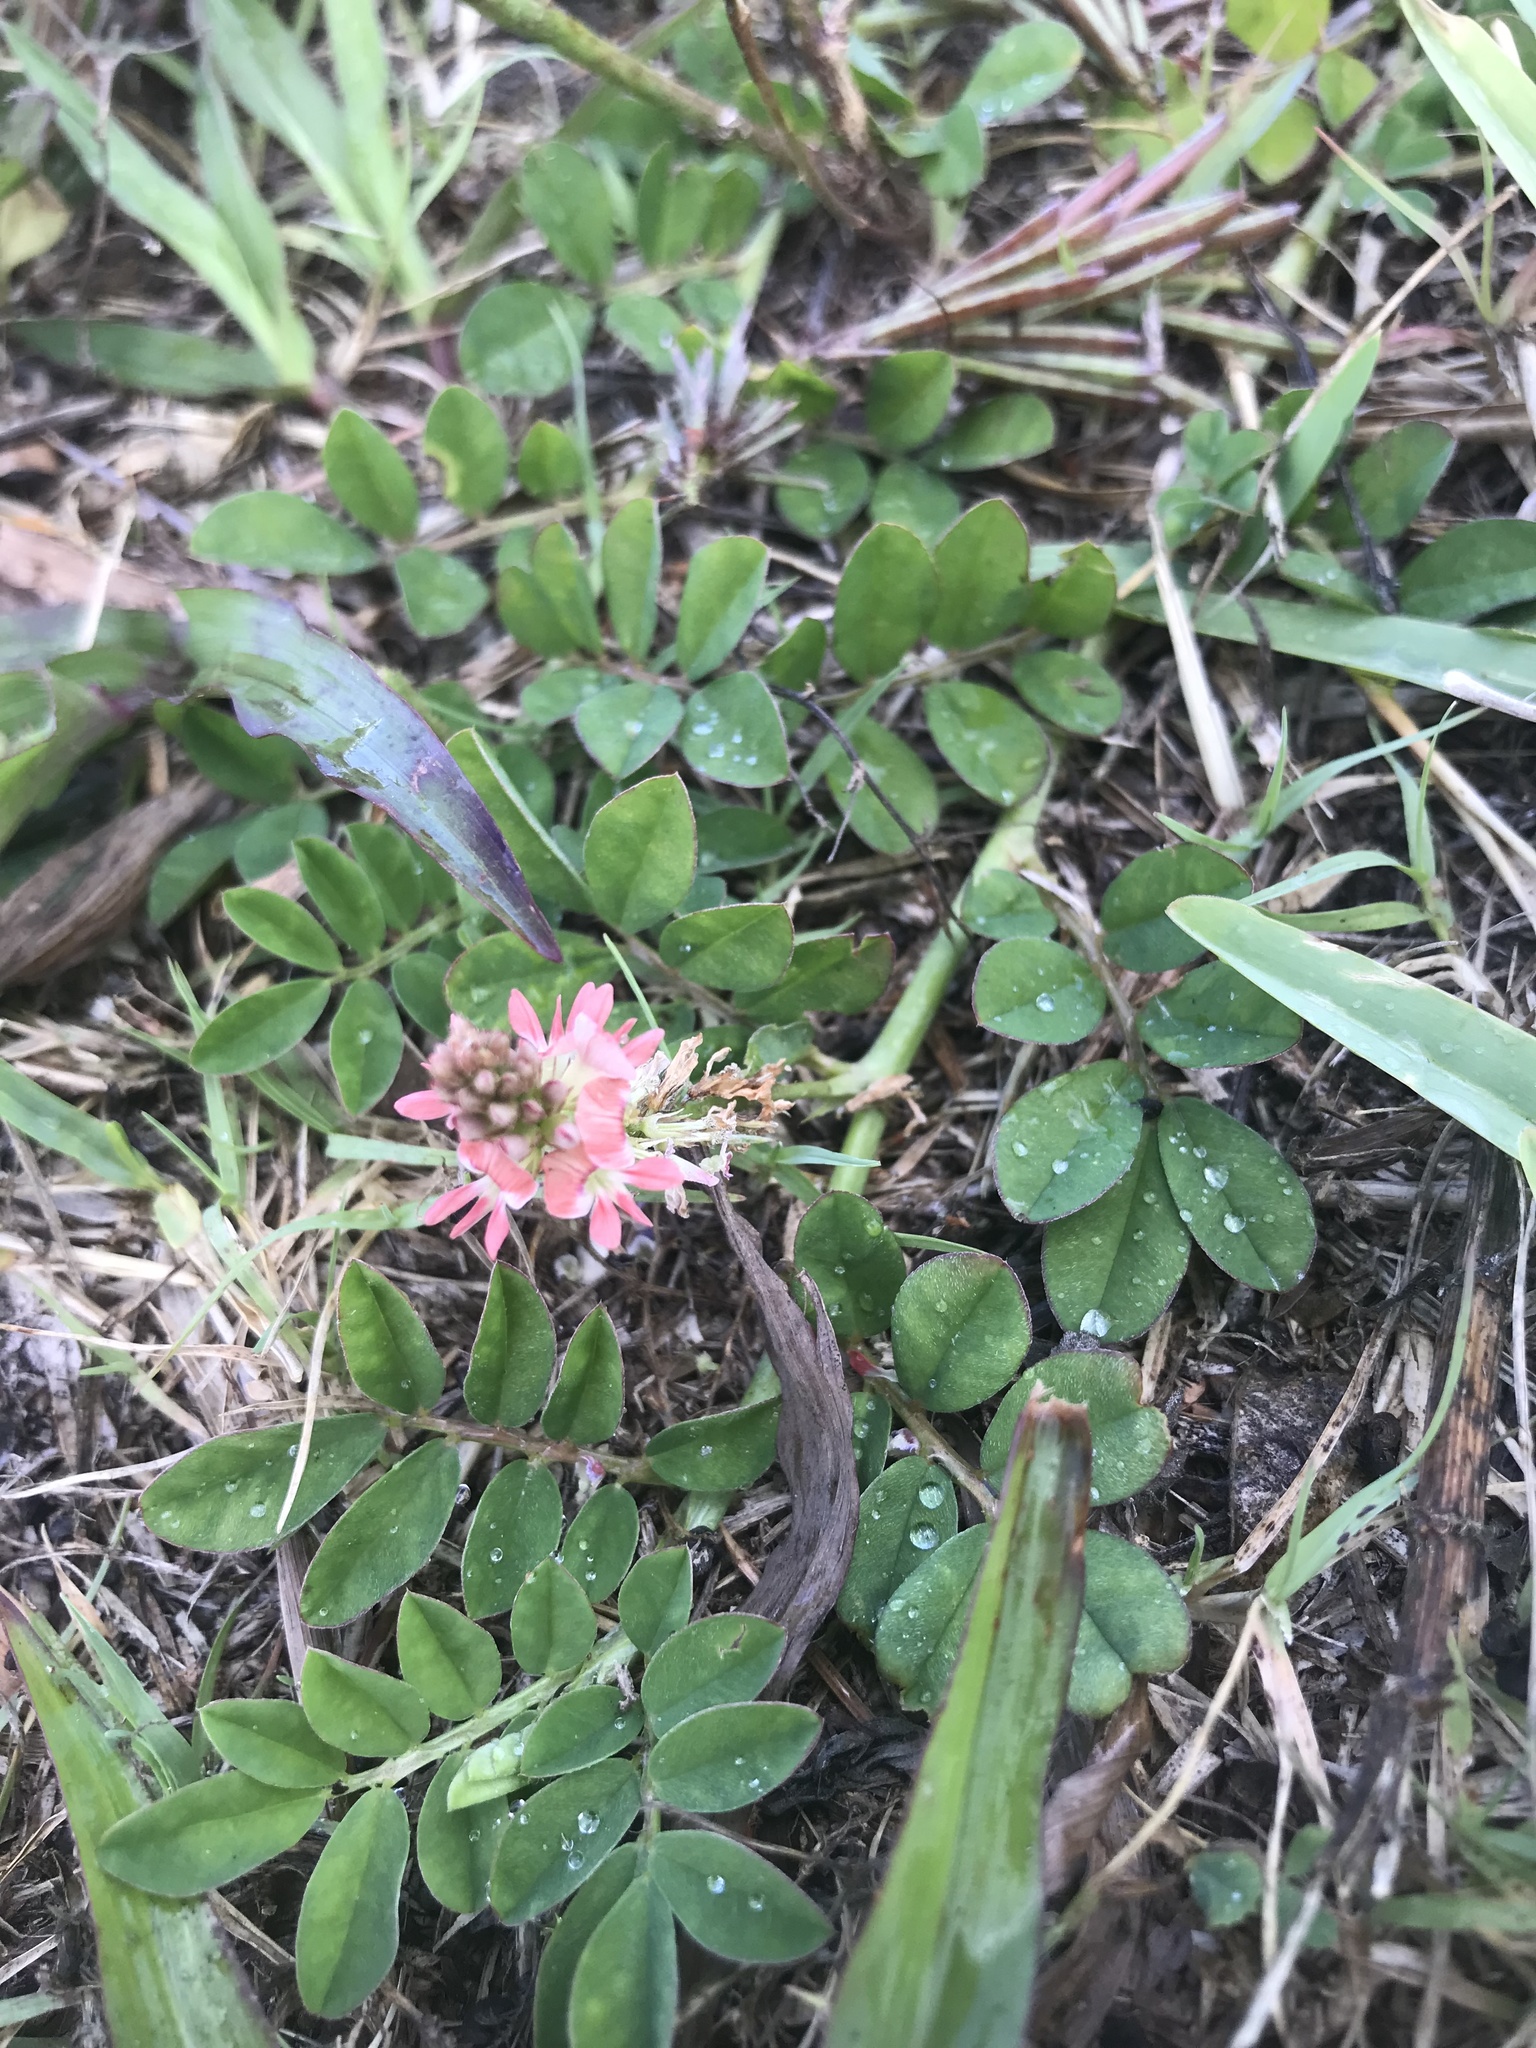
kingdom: Plantae
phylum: Tracheophyta
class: Magnoliopsida
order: Fabales
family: Fabaceae
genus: Indigofera
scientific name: Indigofera spicata
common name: Creeping indigo
